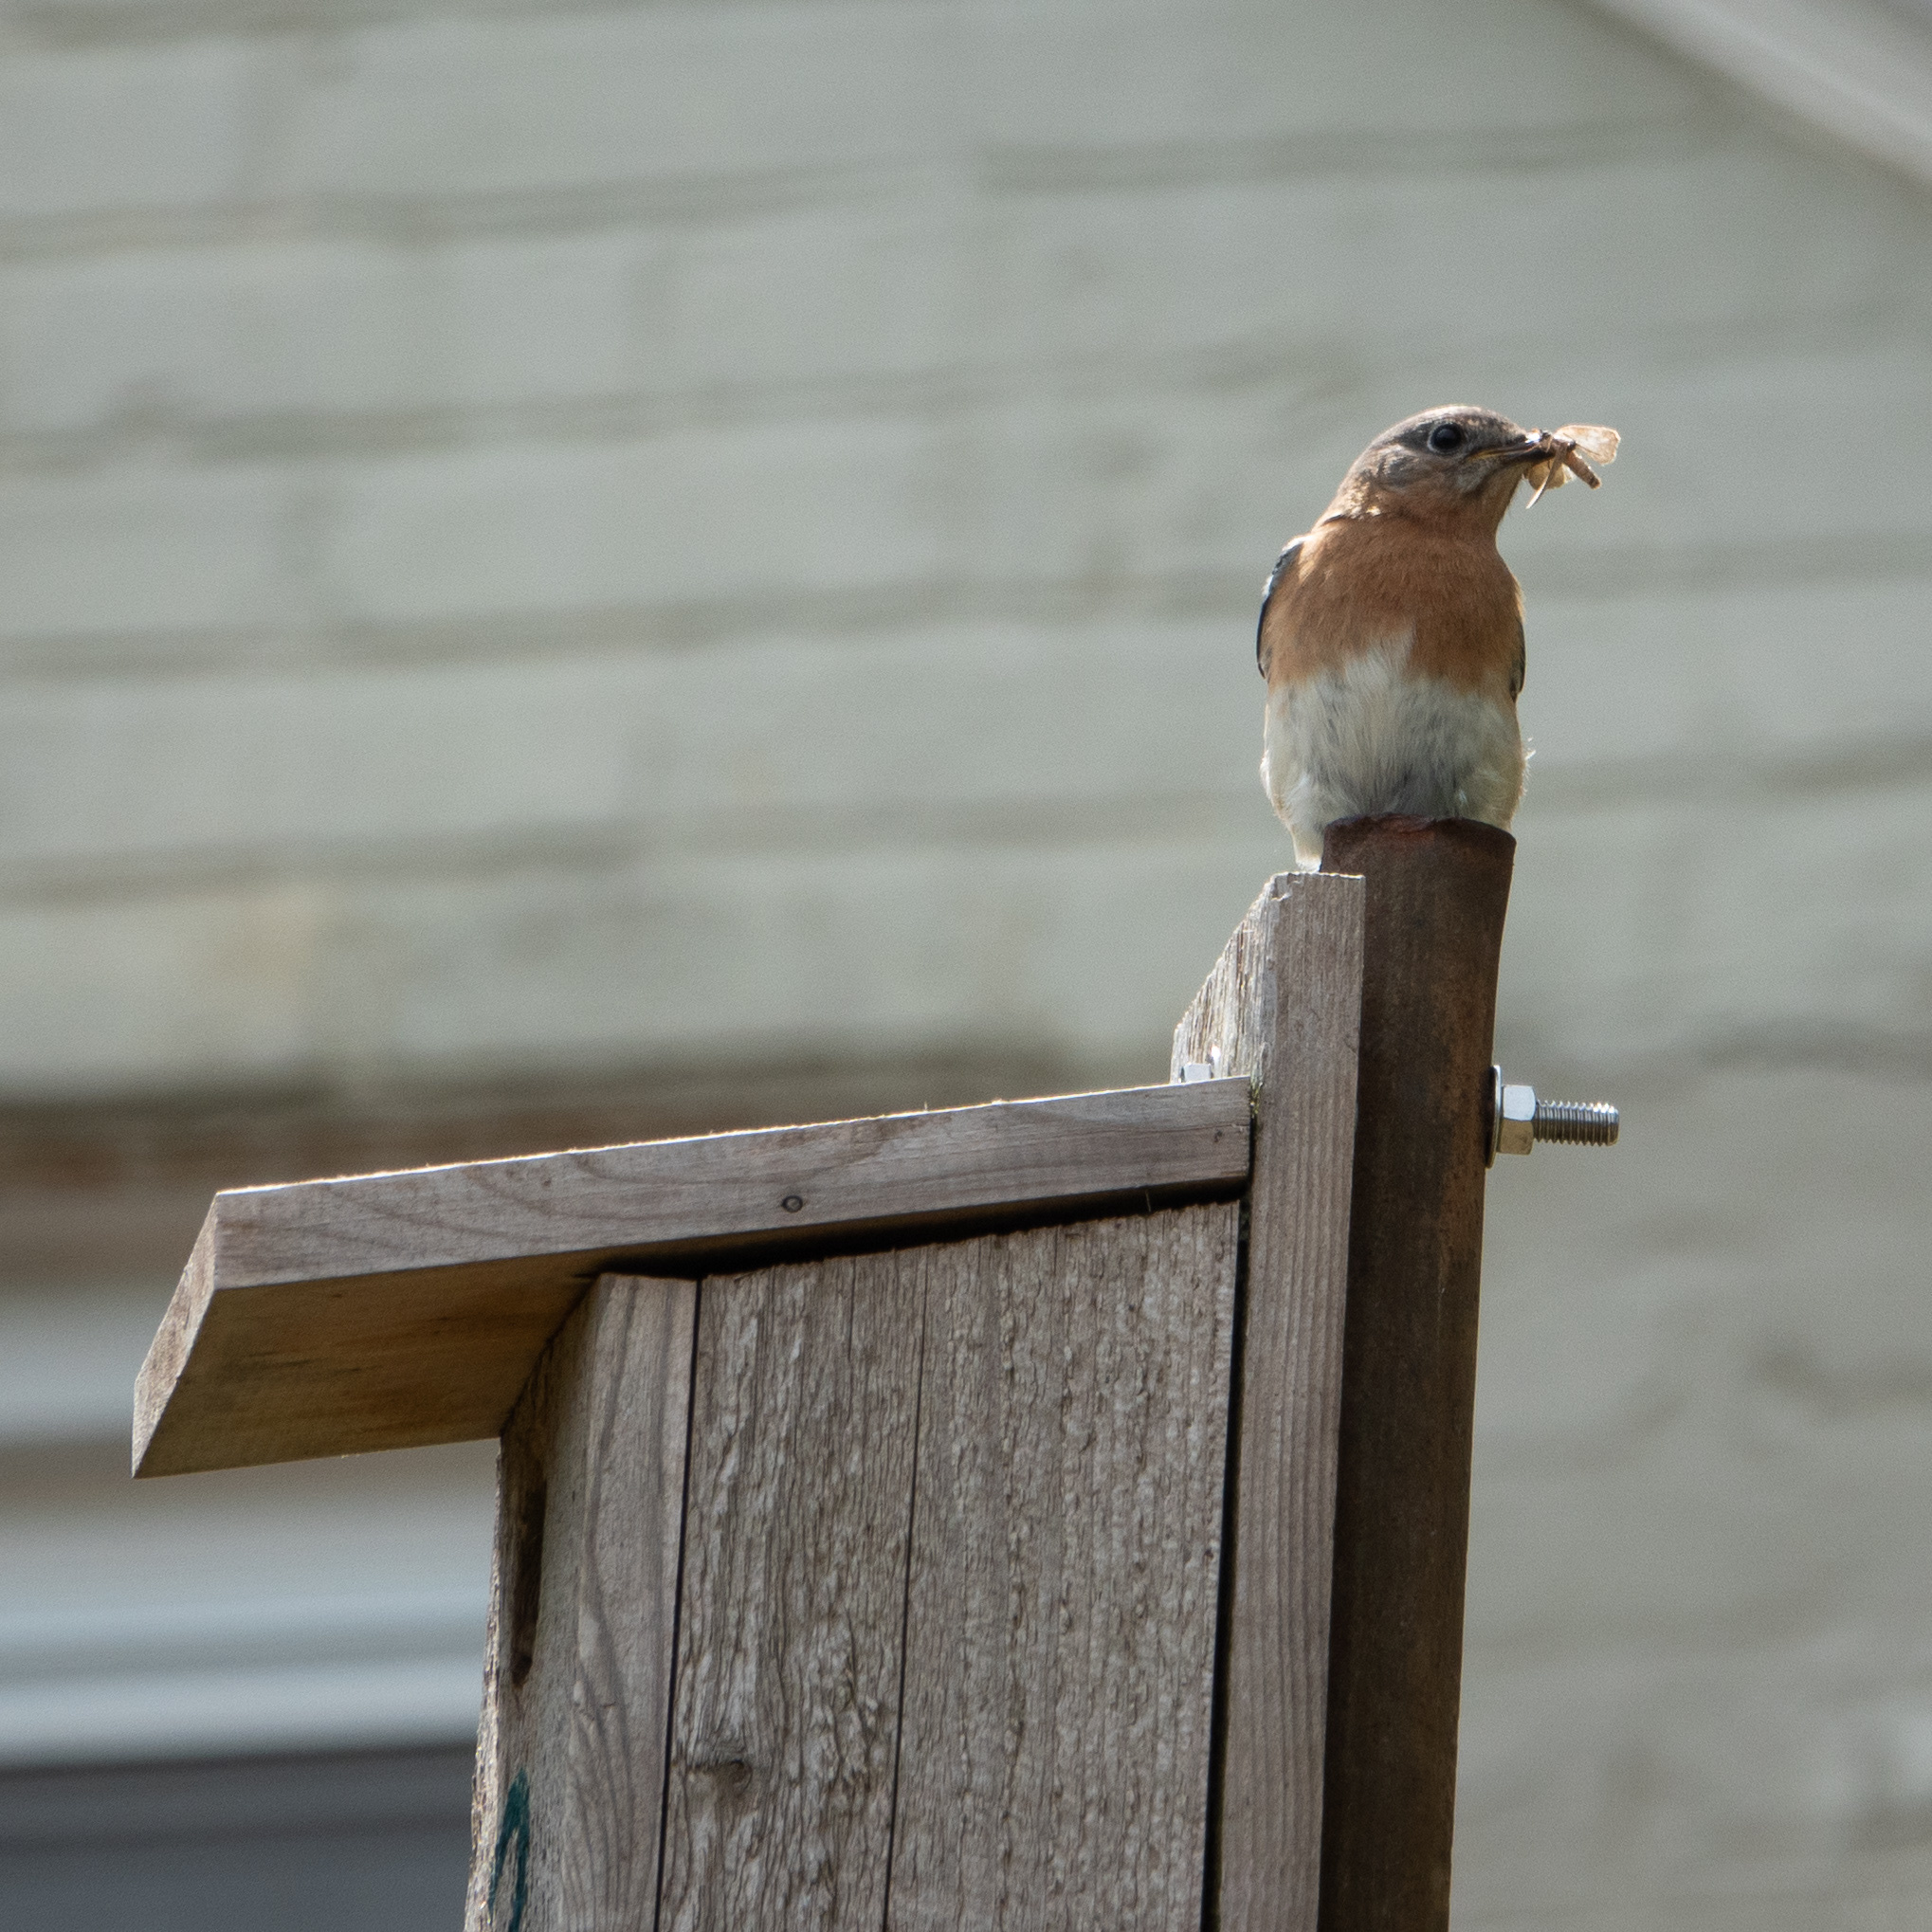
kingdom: Animalia
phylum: Chordata
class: Aves
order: Passeriformes
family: Turdidae
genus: Sialia
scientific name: Sialia sialis
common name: Eastern bluebird
